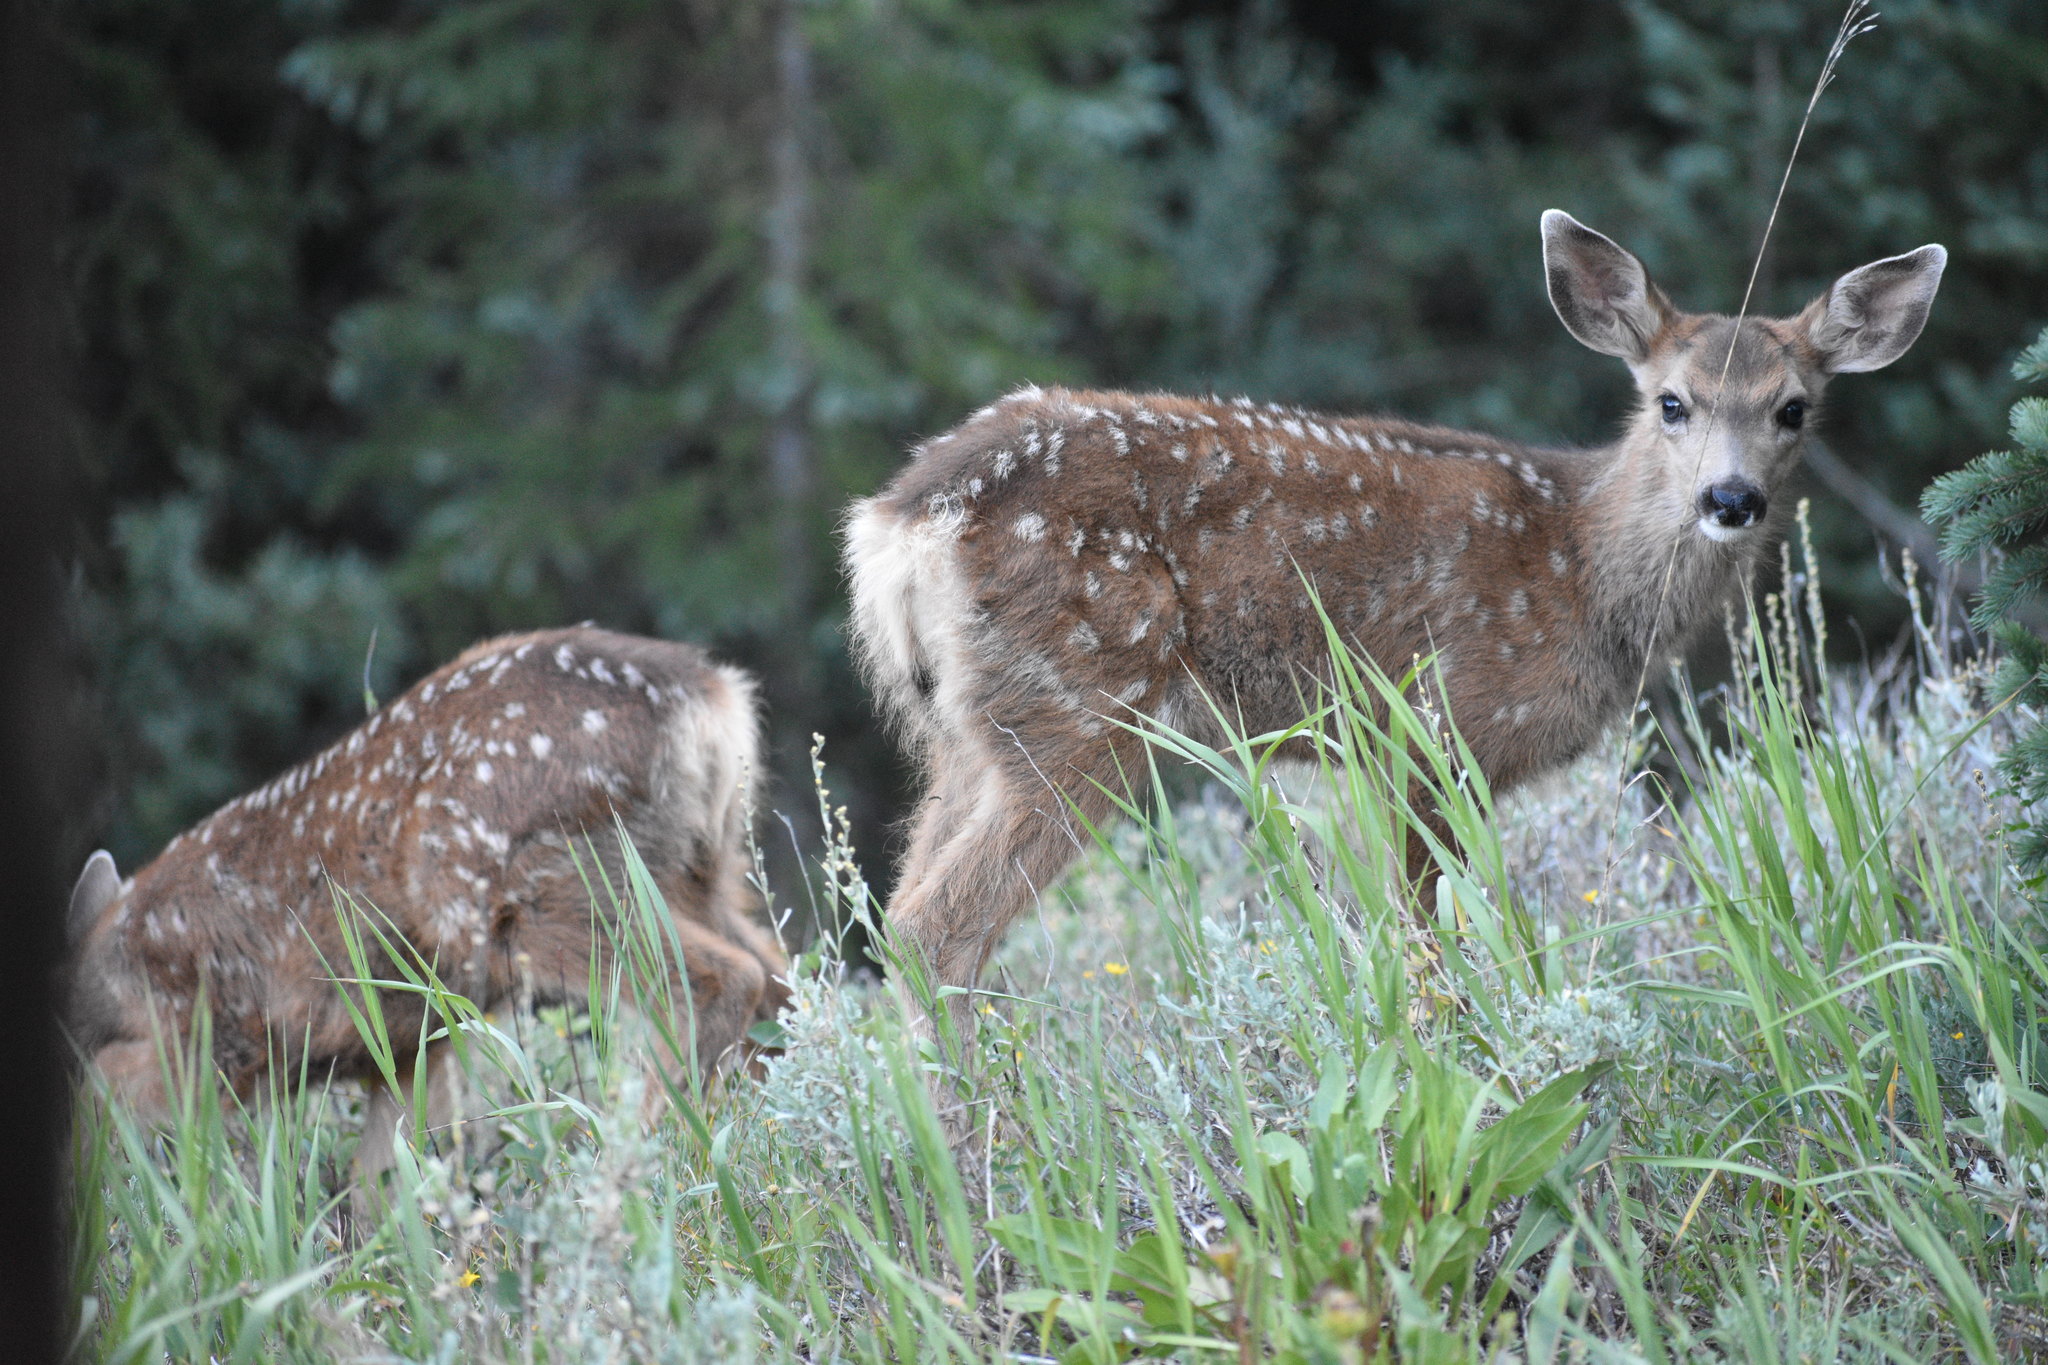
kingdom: Animalia
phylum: Chordata
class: Mammalia
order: Artiodactyla
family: Cervidae
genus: Odocoileus
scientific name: Odocoileus hemionus
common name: Mule deer
